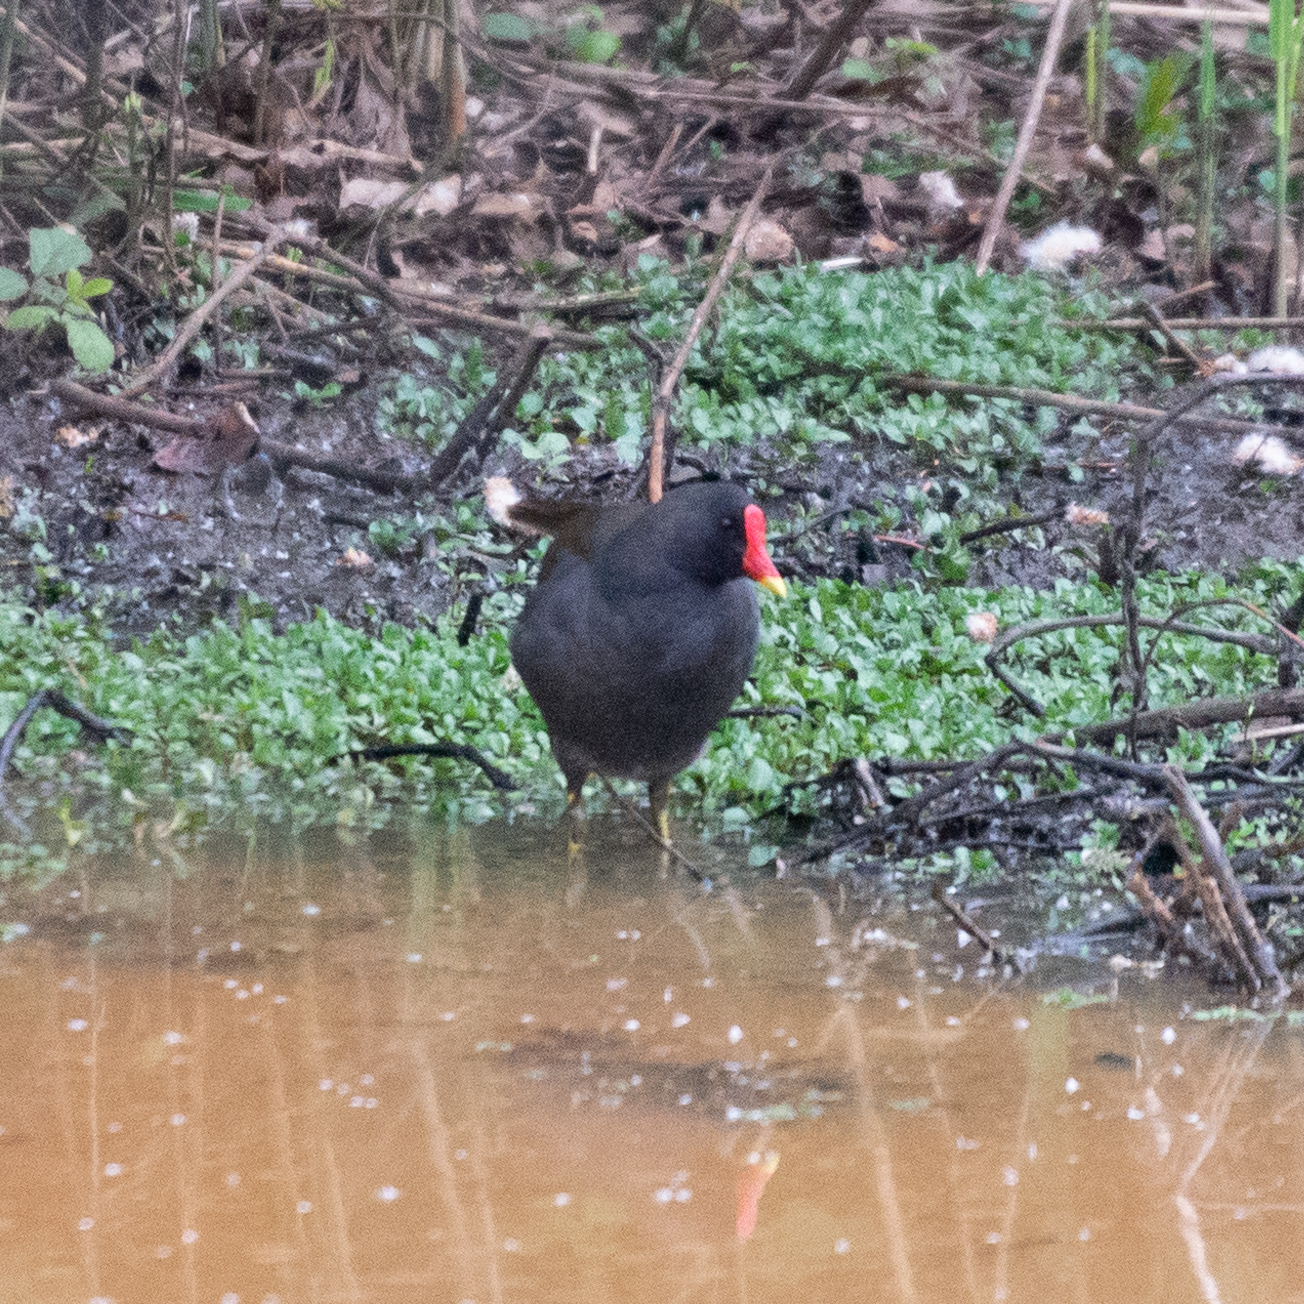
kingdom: Animalia
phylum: Chordata
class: Aves
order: Gruiformes
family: Rallidae
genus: Gallinula
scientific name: Gallinula chloropus
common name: Common moorhen
